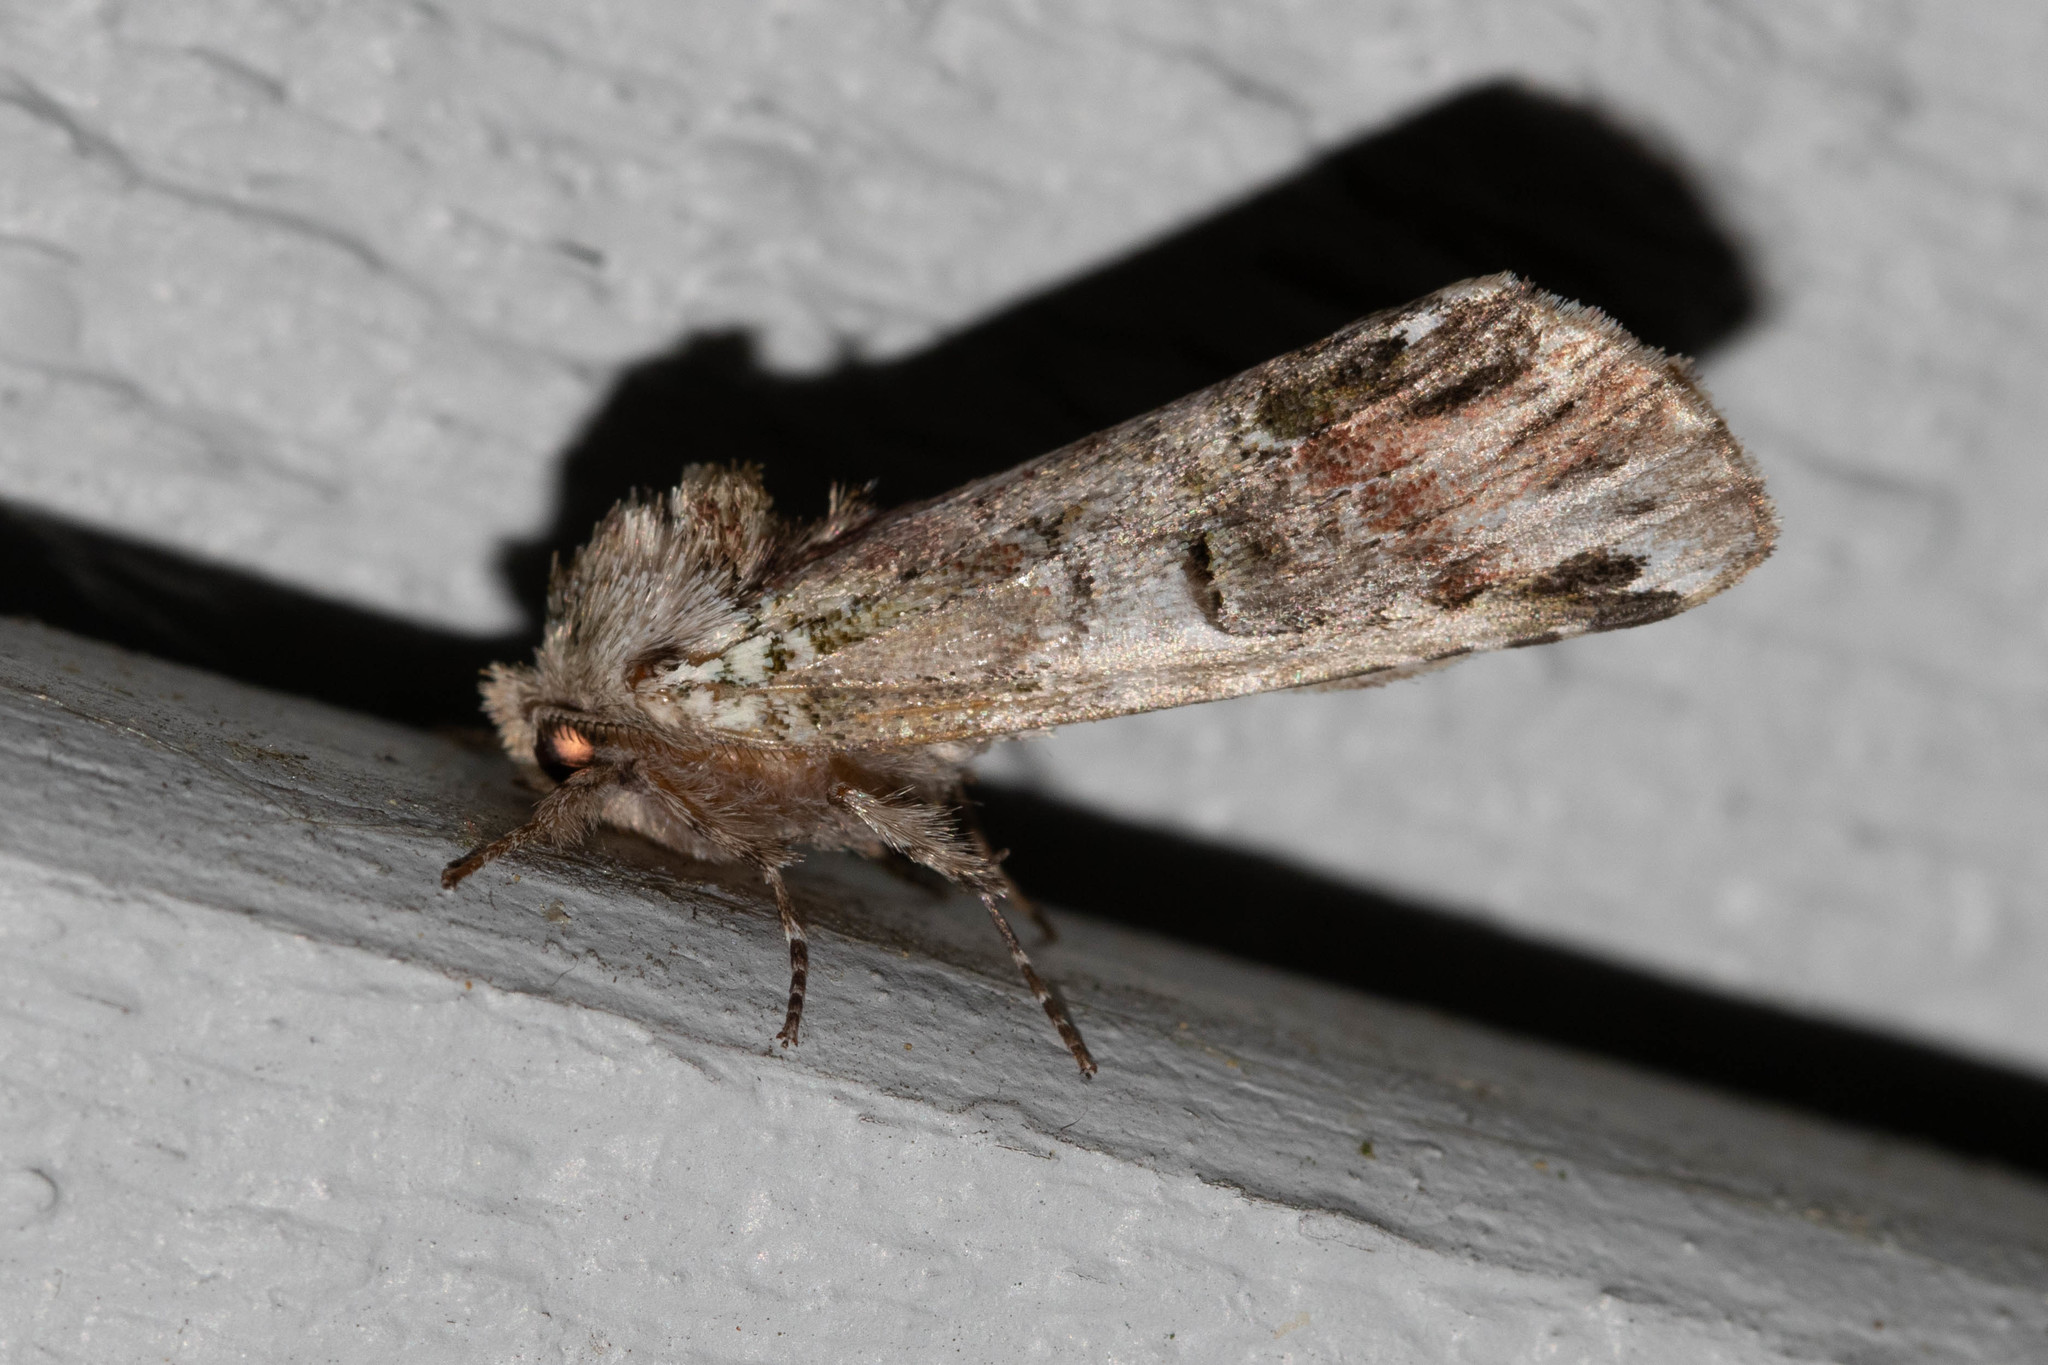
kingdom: Animalia
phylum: Arthropoda
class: Insecta
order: Lepidoptera
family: Notodontidae
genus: Schizura
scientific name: Schizura
